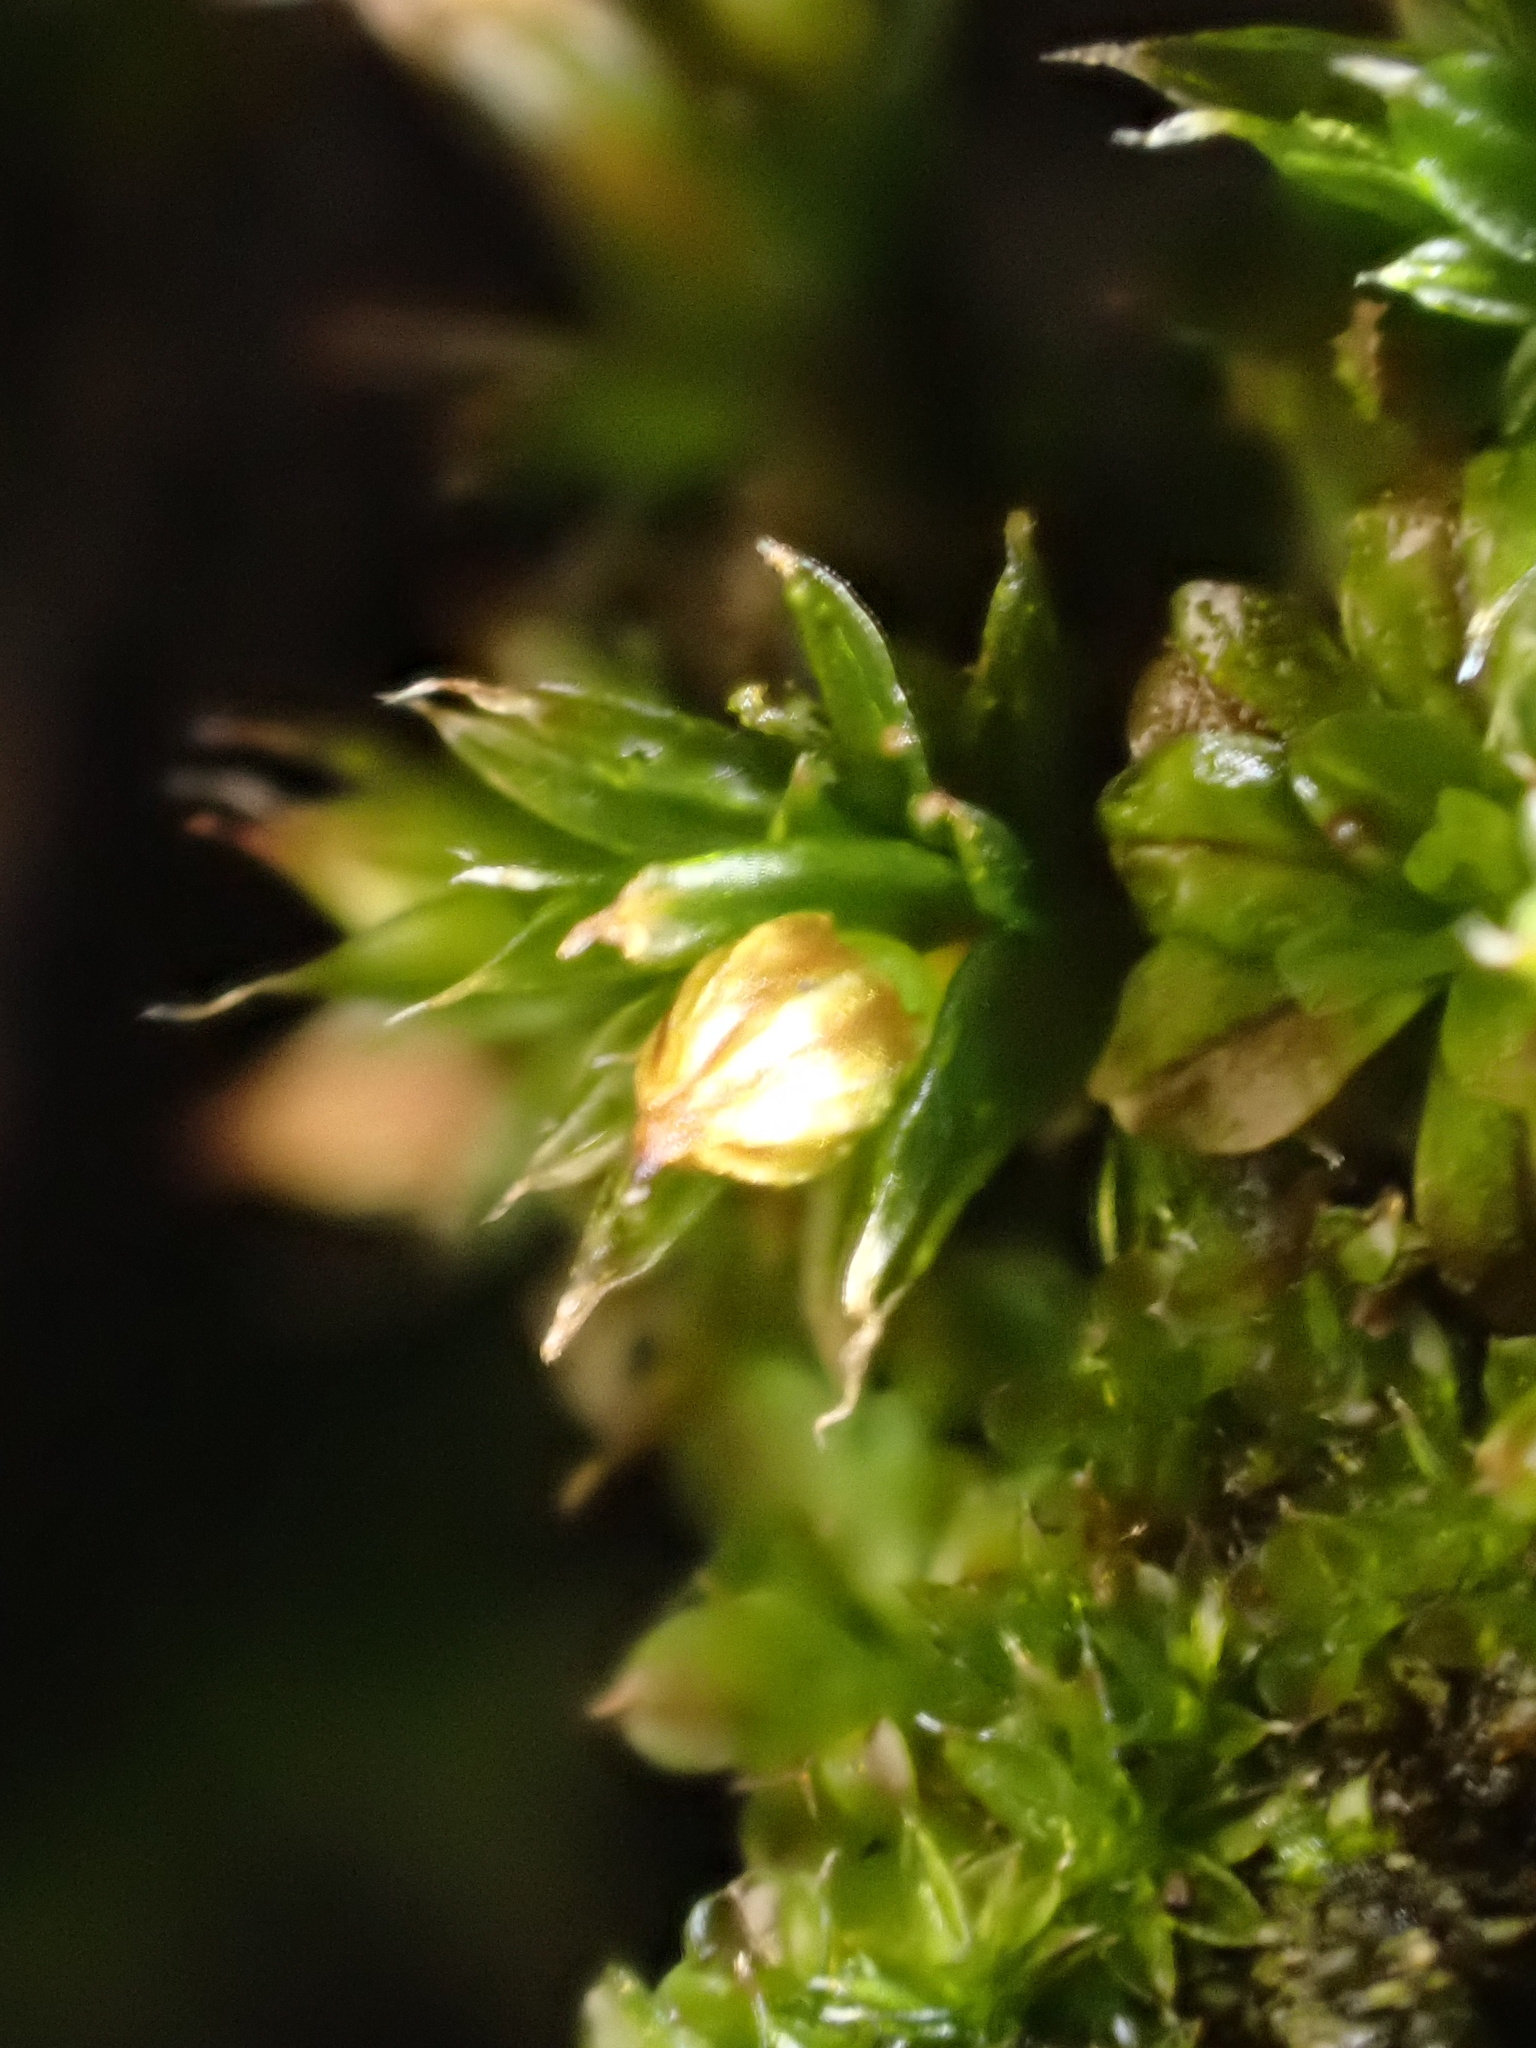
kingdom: Plantae
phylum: Bryophyta
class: Bryopsida
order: Orthotrichales
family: Orthotrichaceae
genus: Orthotrichum
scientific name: Orthotrichum diaphanum
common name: White-tipped bristle-moss
